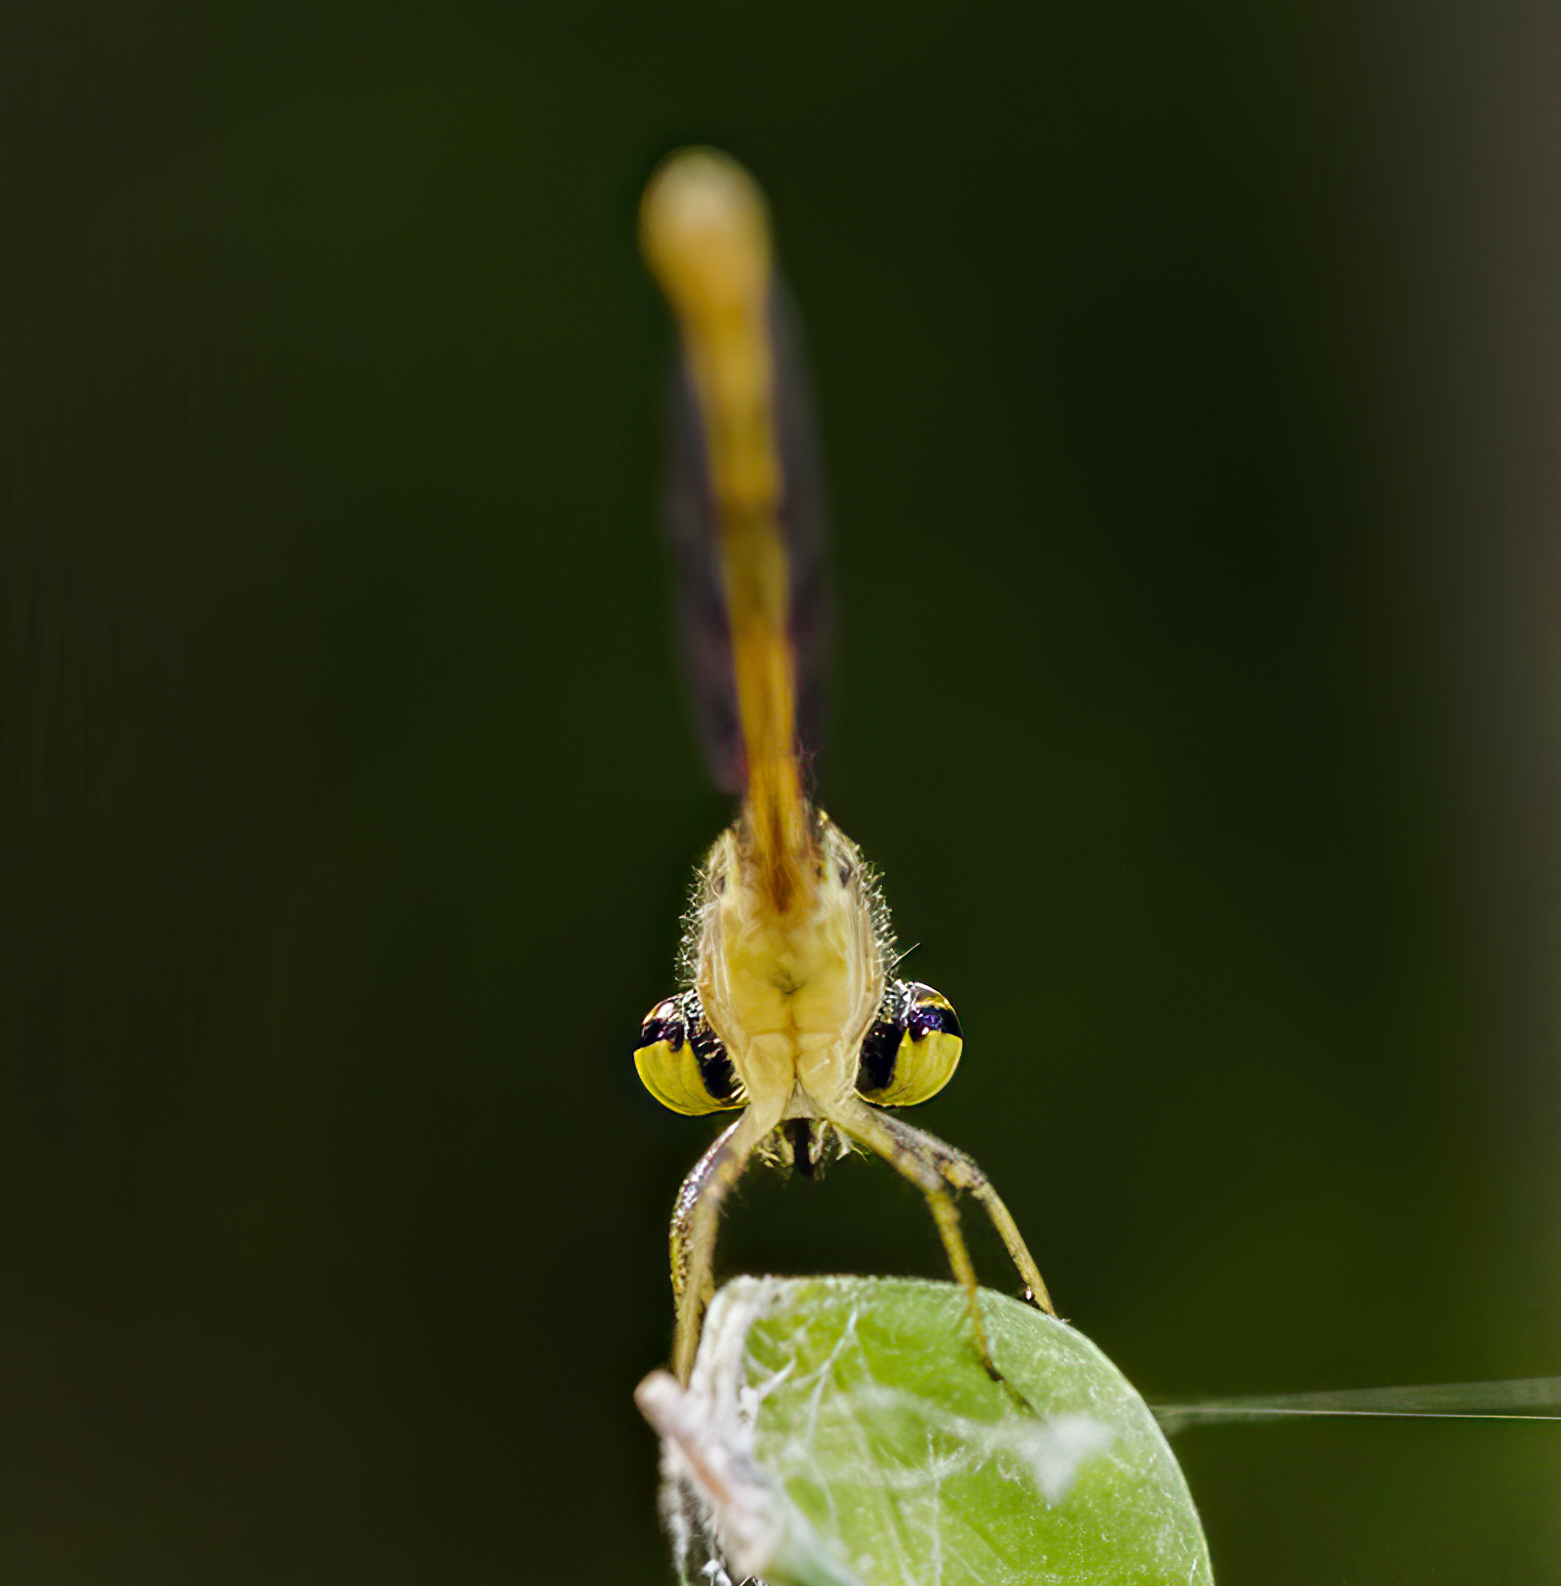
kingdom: Animalia
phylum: Arthropoda
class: Insecta
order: Odonata
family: Coenagrionidae
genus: Telebasis
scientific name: Telebasis willinki
